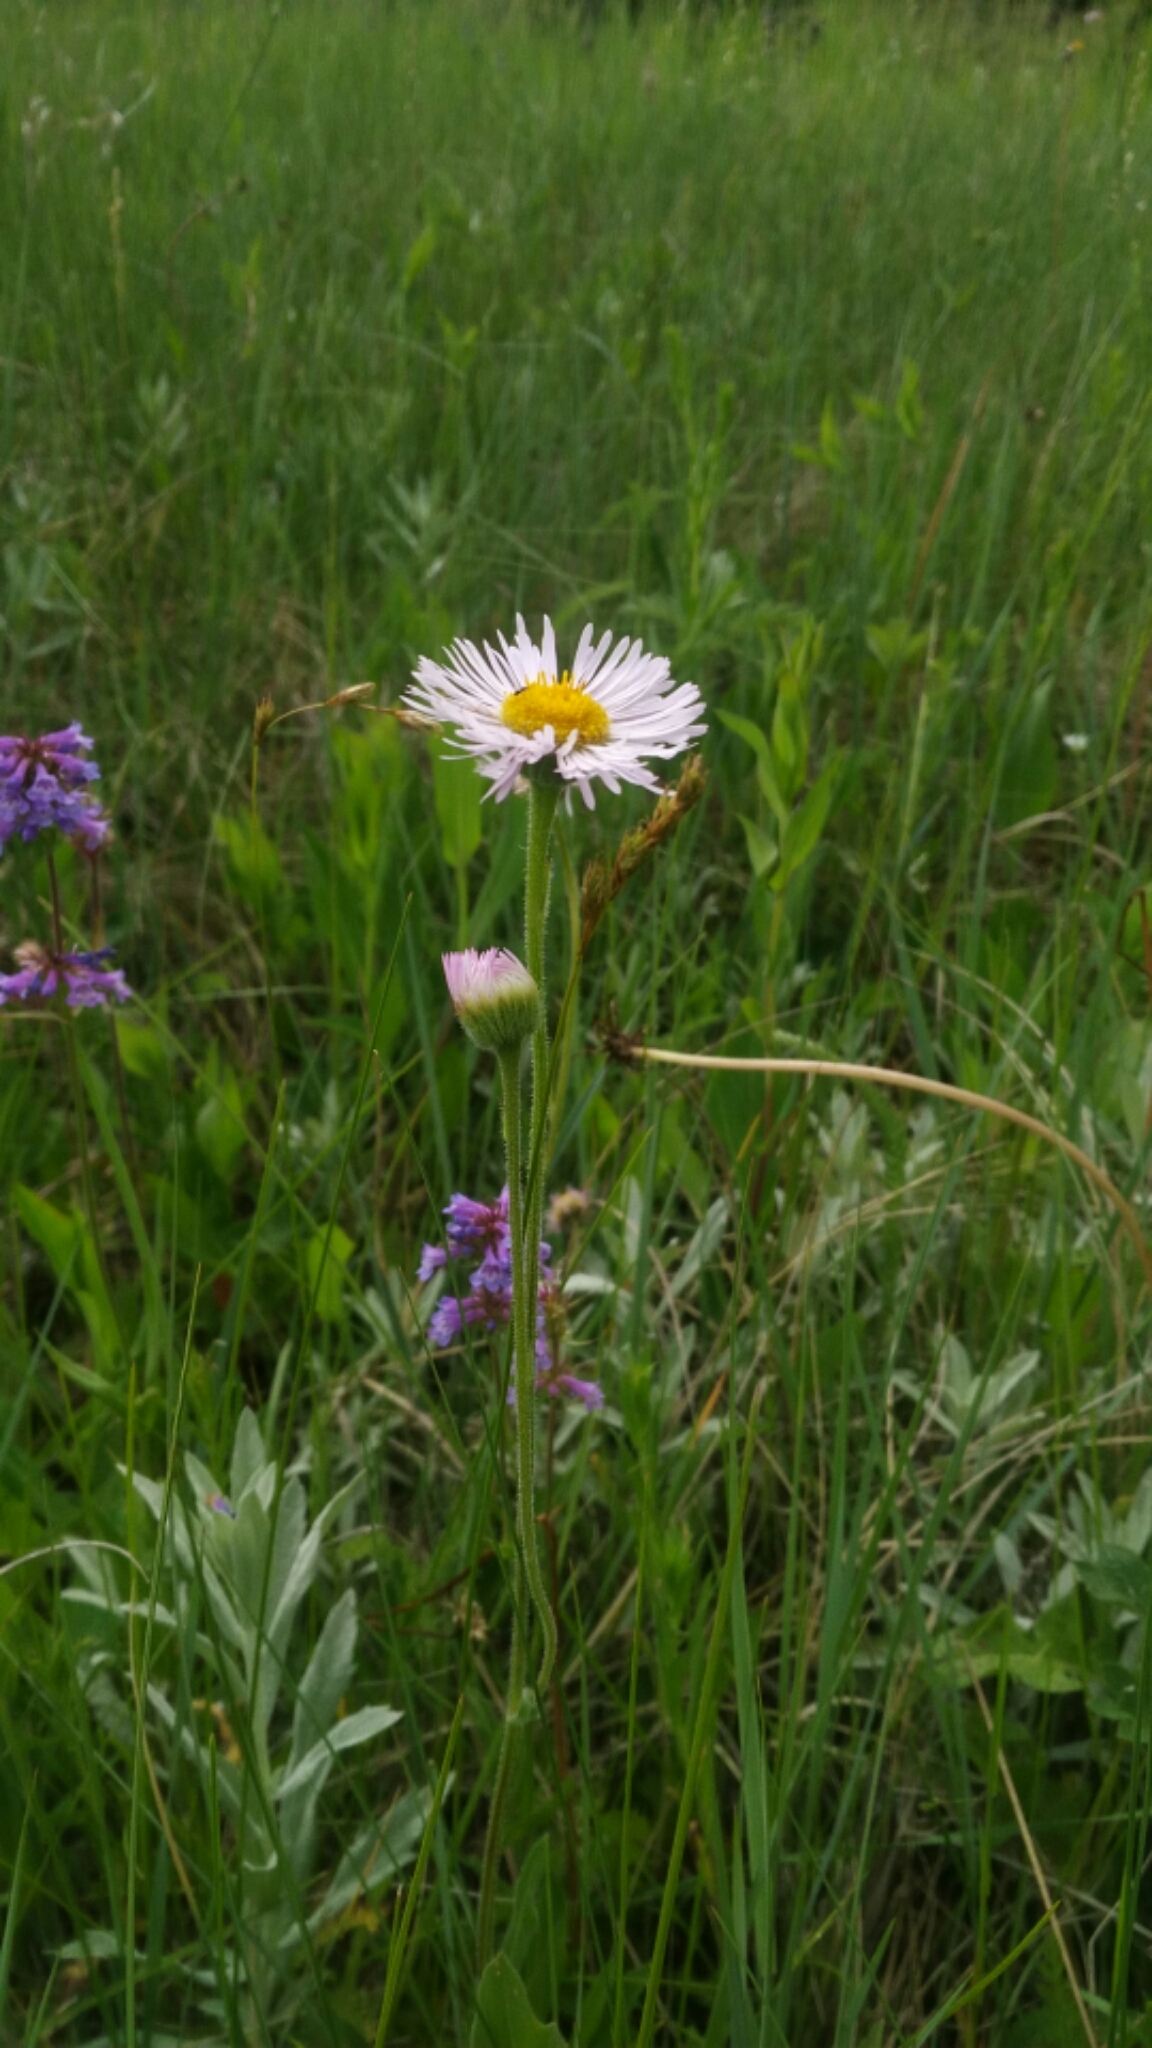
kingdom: Plantae
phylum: Tracheophyta
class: Magnoliopsida
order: Asterales
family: Asteraceae
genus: Erigeron
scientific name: Erigeron glabellus
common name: Smooth fleabane
